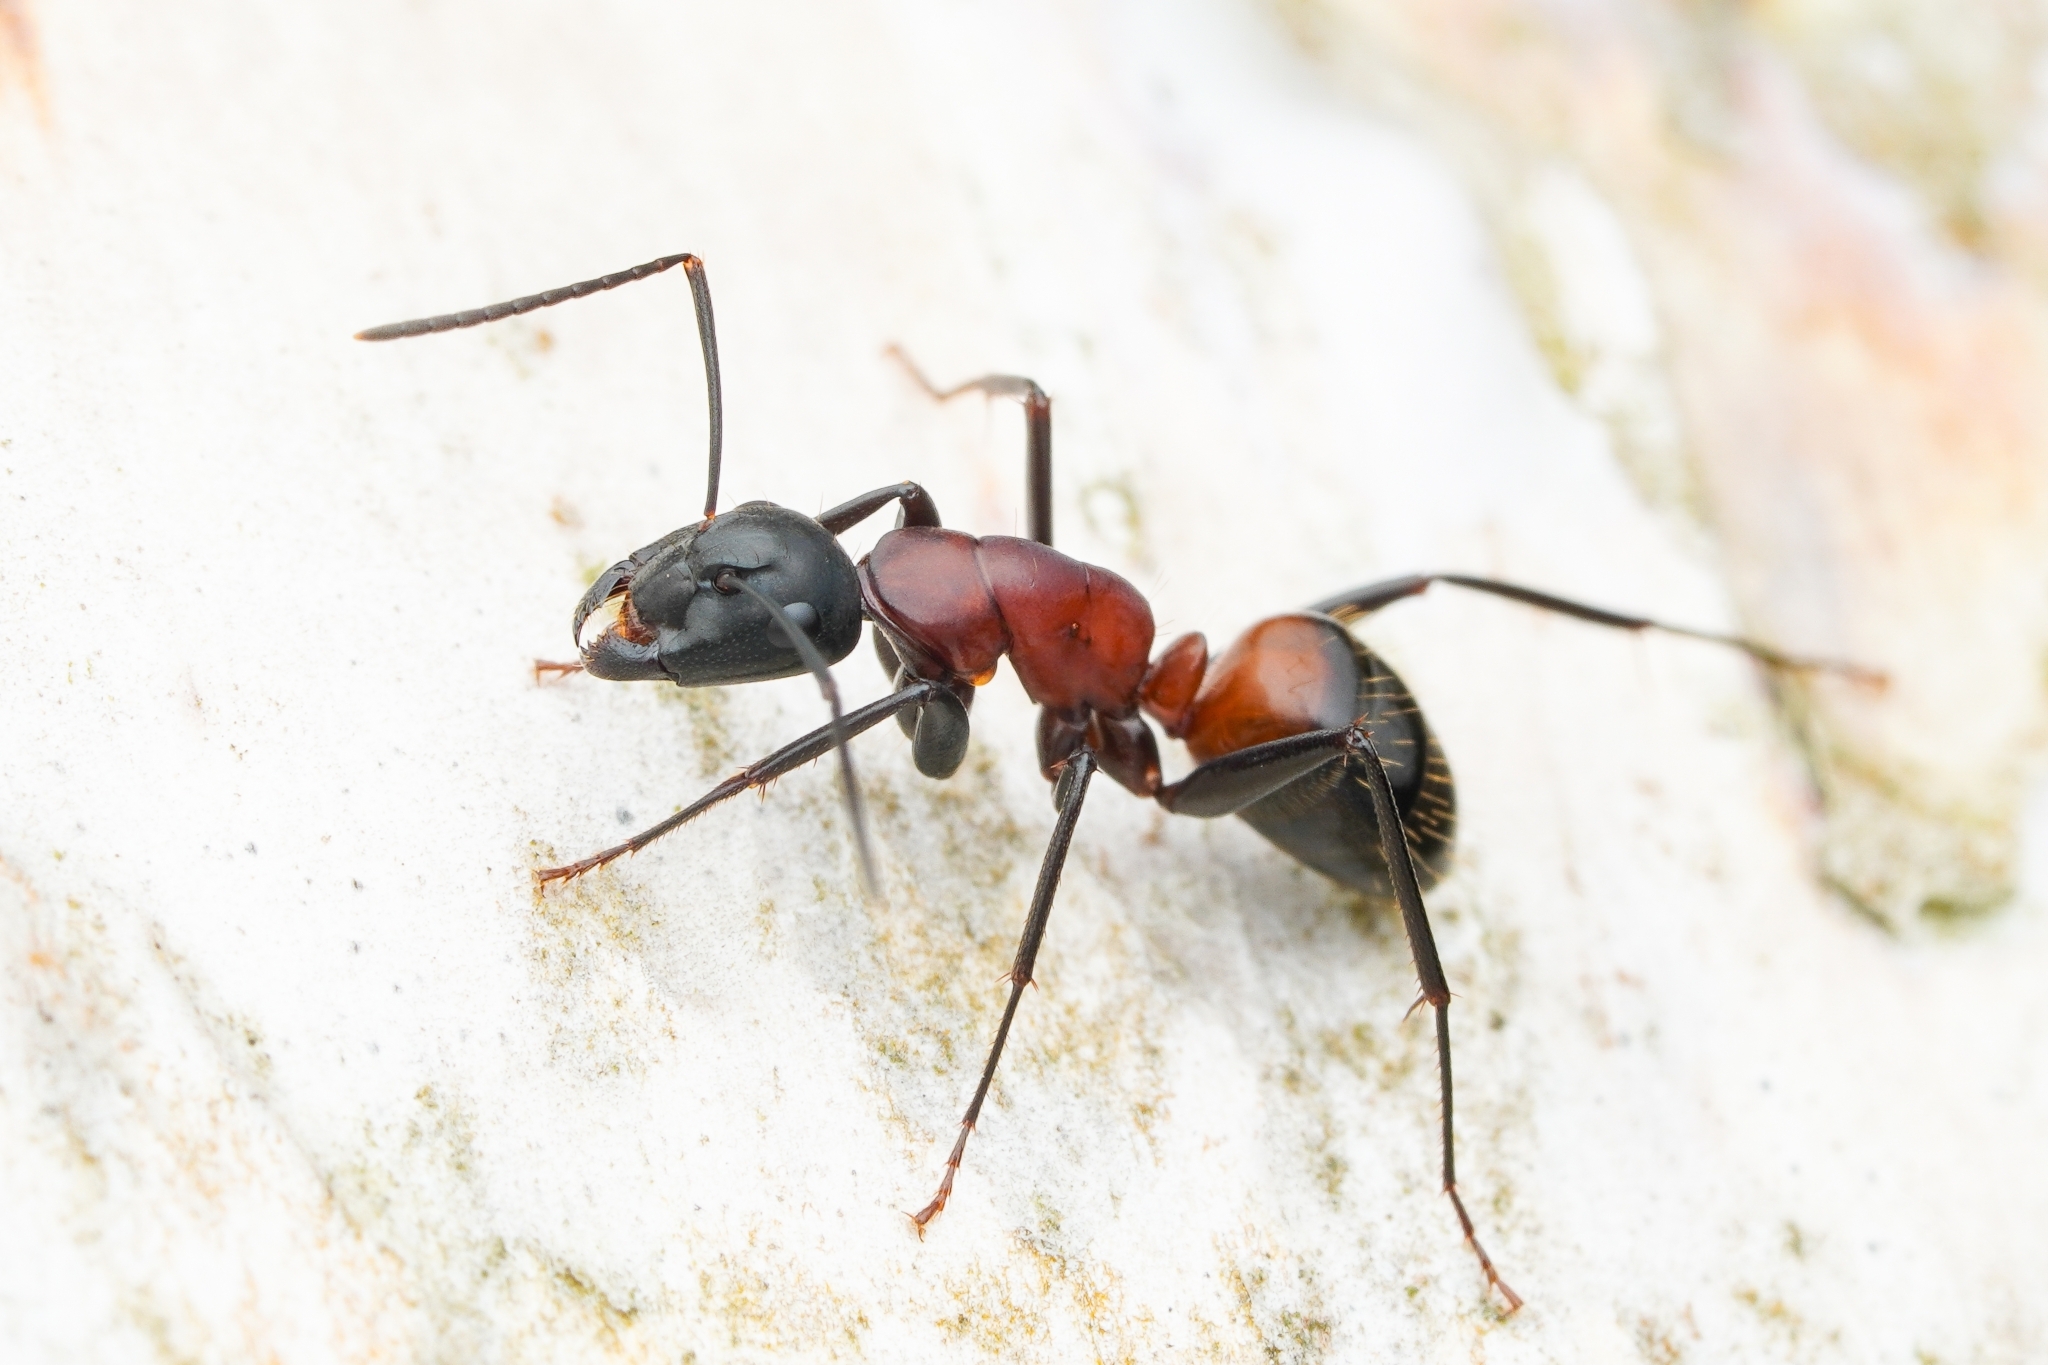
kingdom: Animalia
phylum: Arthropoda
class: Insecta
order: Hymenoptera
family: Formicidae
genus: Camponotus
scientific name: Camponotus obscuripes
